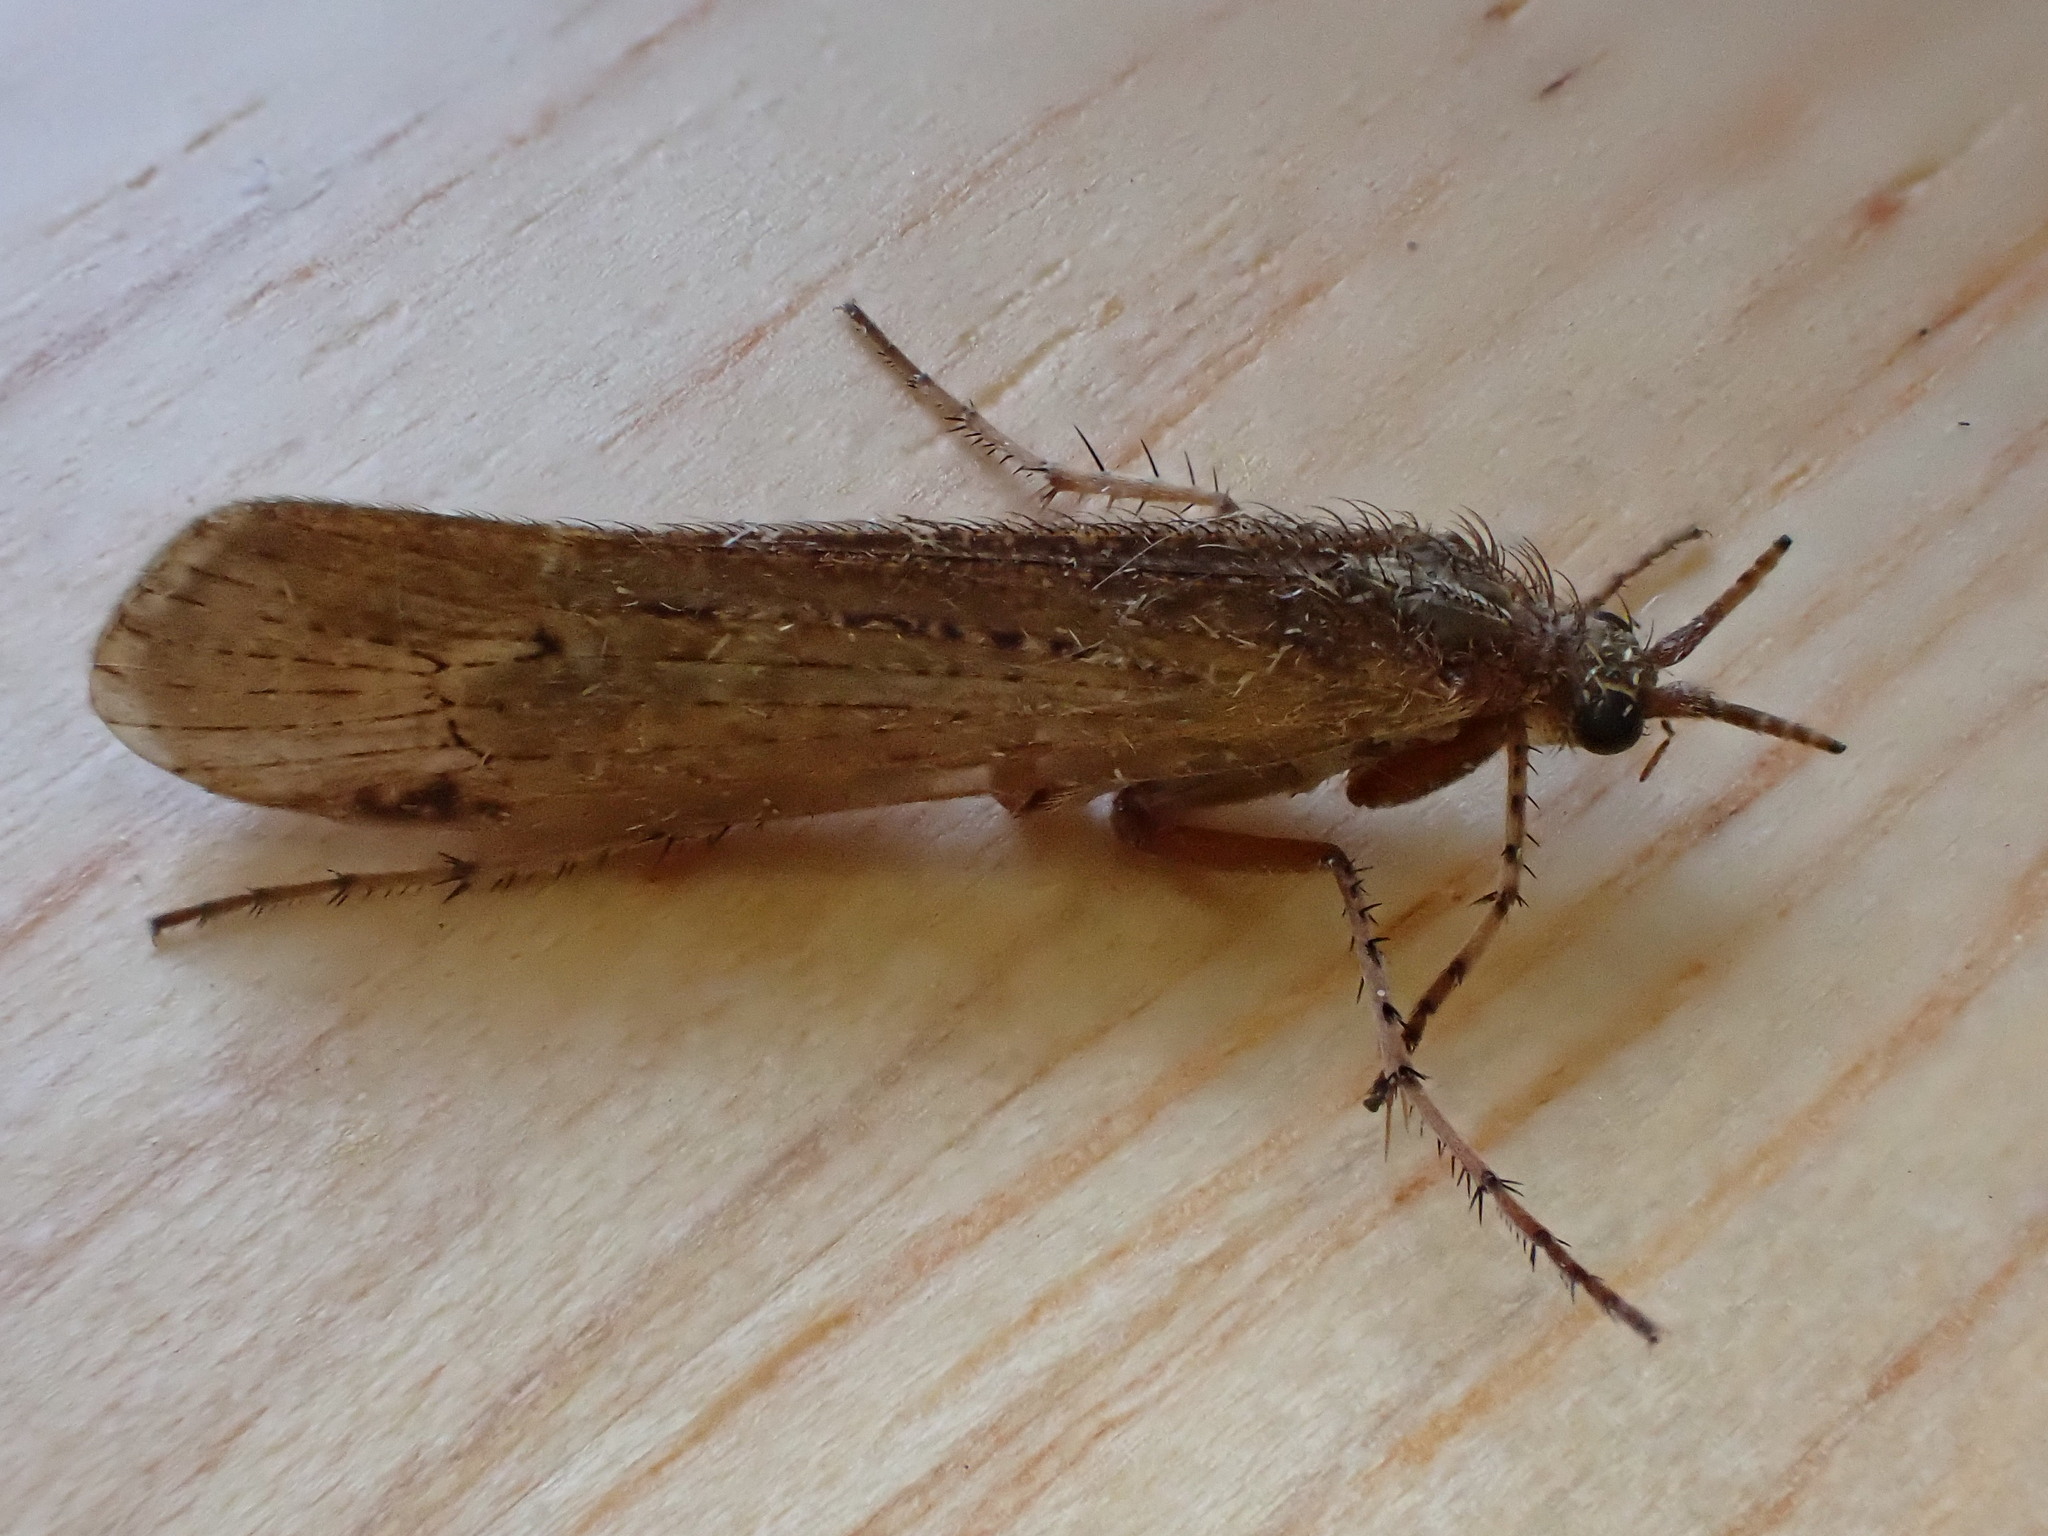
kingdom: Animalia
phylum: Arthropoda
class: Insecta
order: Trichoptera
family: Limnephilidae
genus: Limnephilus
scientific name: Limnephilus affinis
